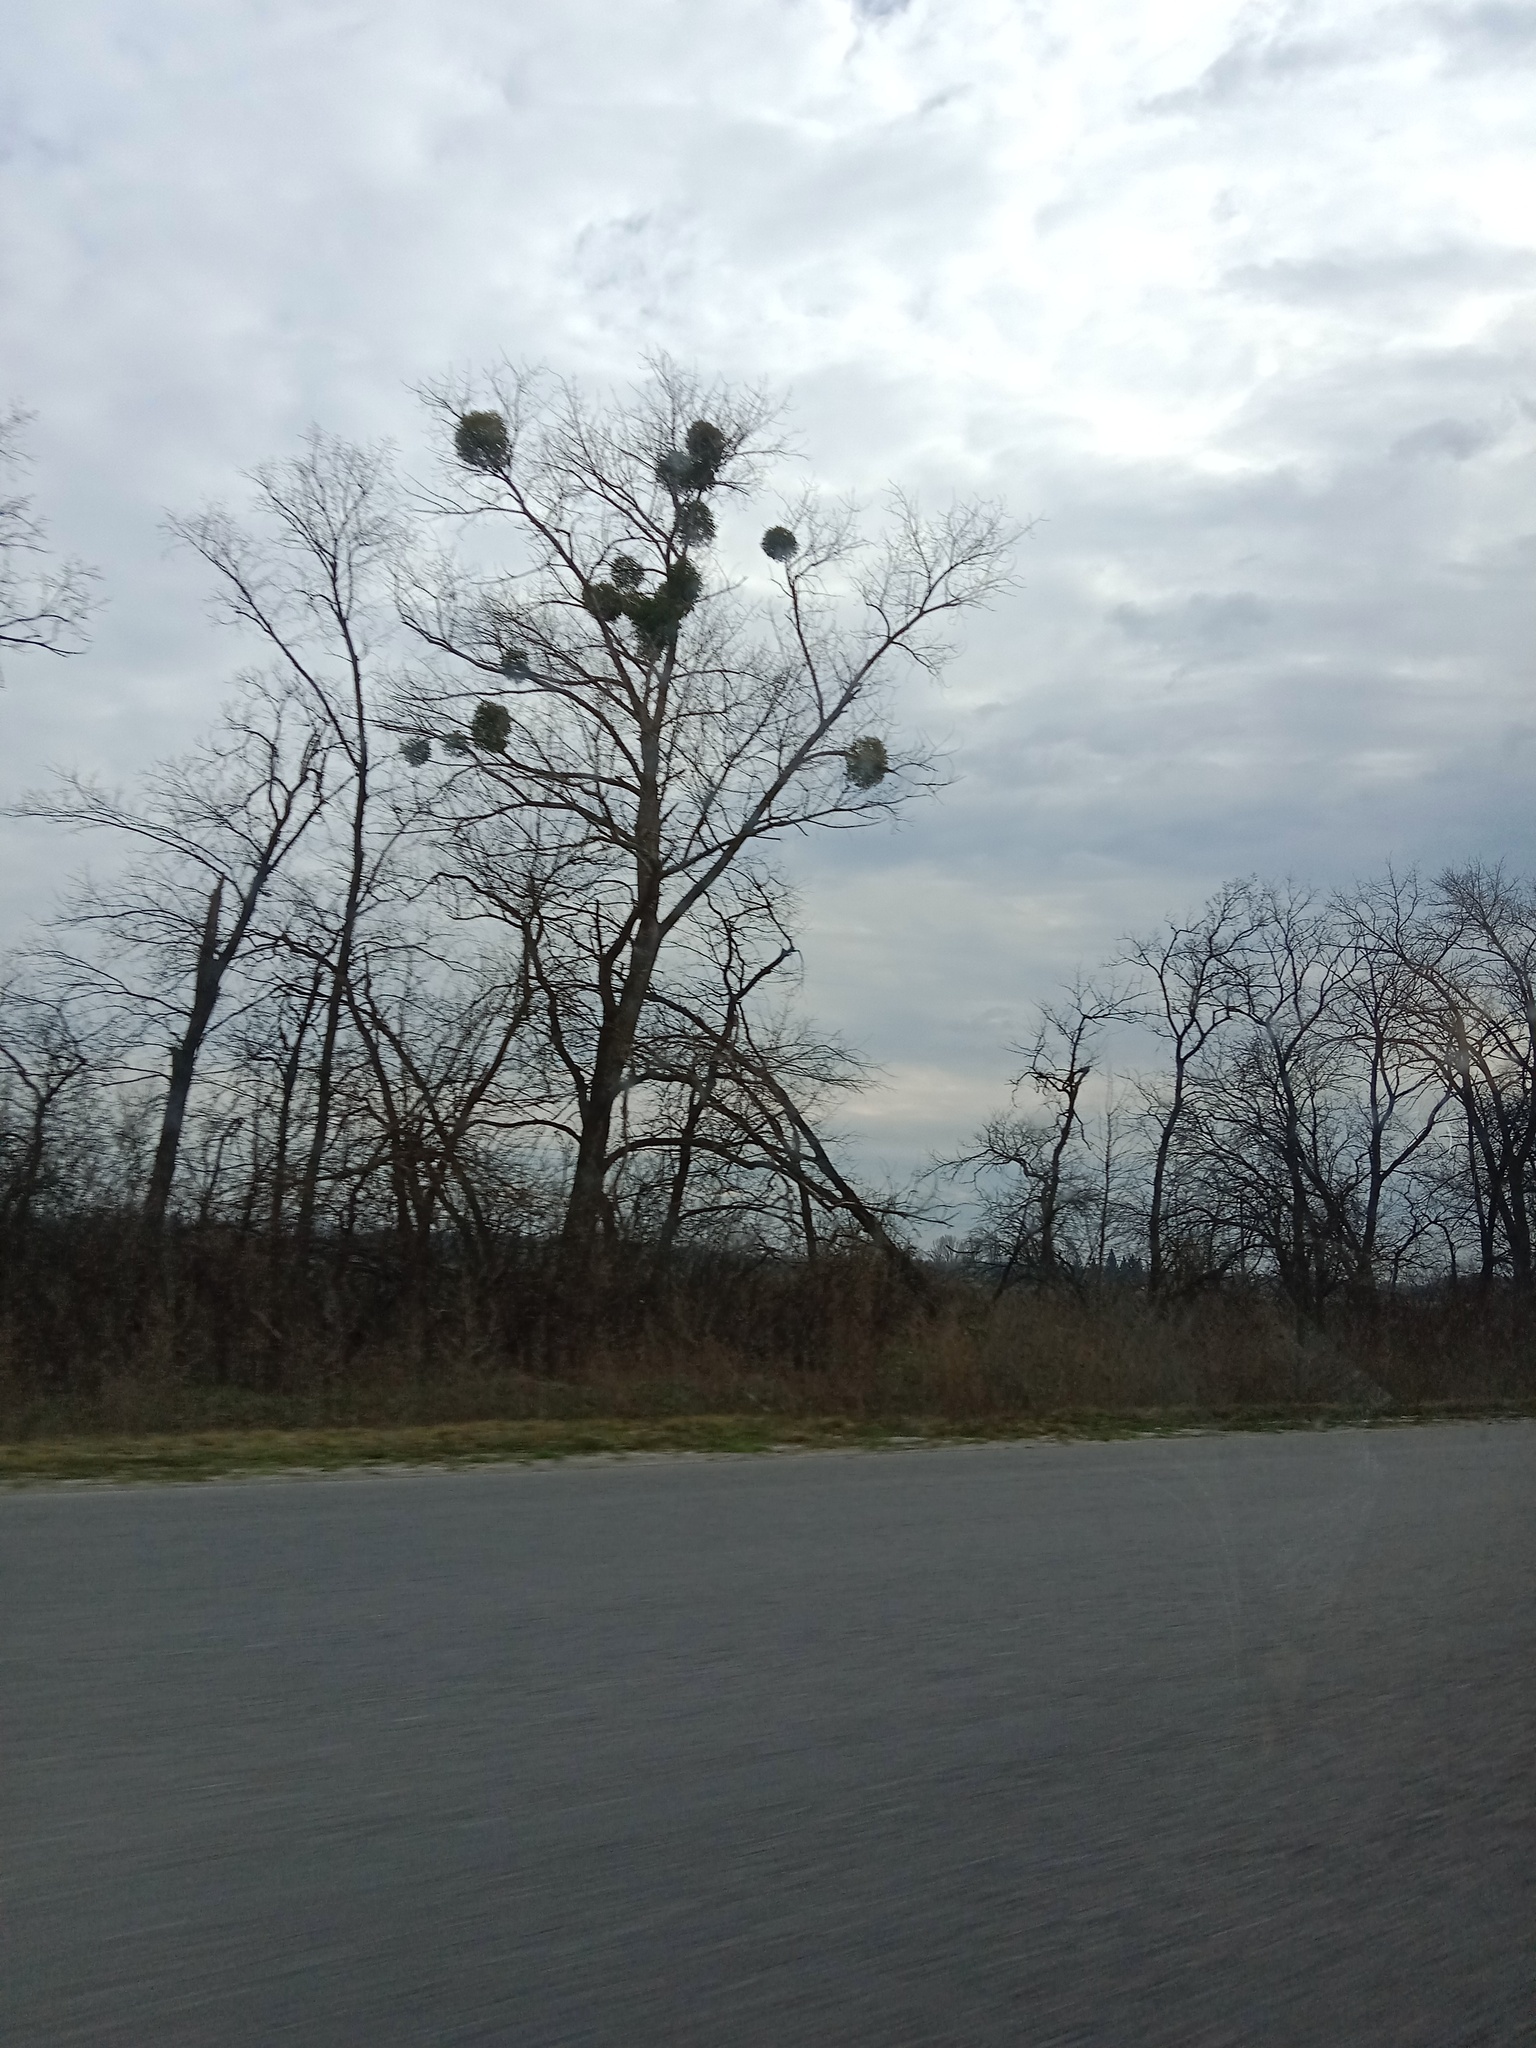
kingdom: Plantae
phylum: Tracheophyta
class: Magnoliopsida
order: Santalales
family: Viscaceae
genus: Viscum
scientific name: Viscum album
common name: Mistletoe
